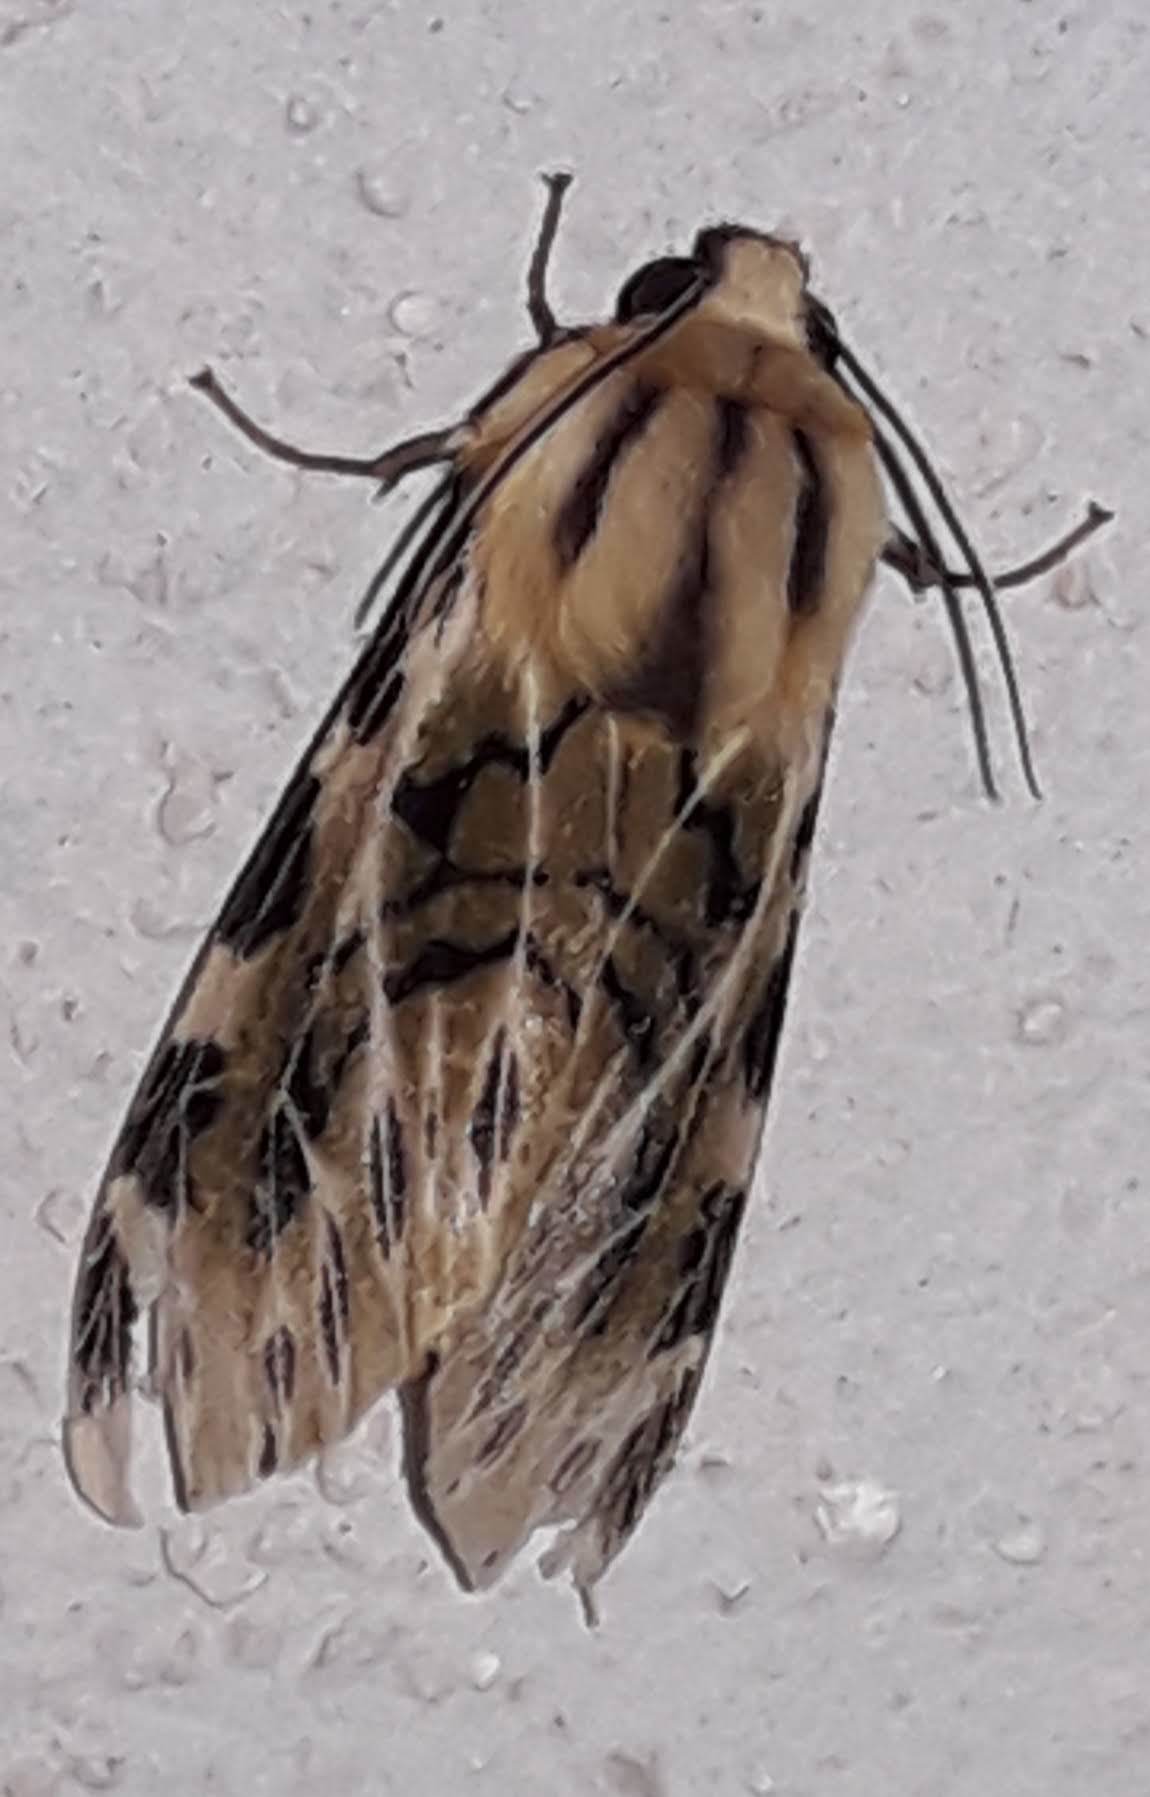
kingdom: Animalia
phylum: Arthropoda
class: Insecta
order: Lepidoptera
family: Erebidae
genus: Hypercompe
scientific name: Hypercompe nemophila
